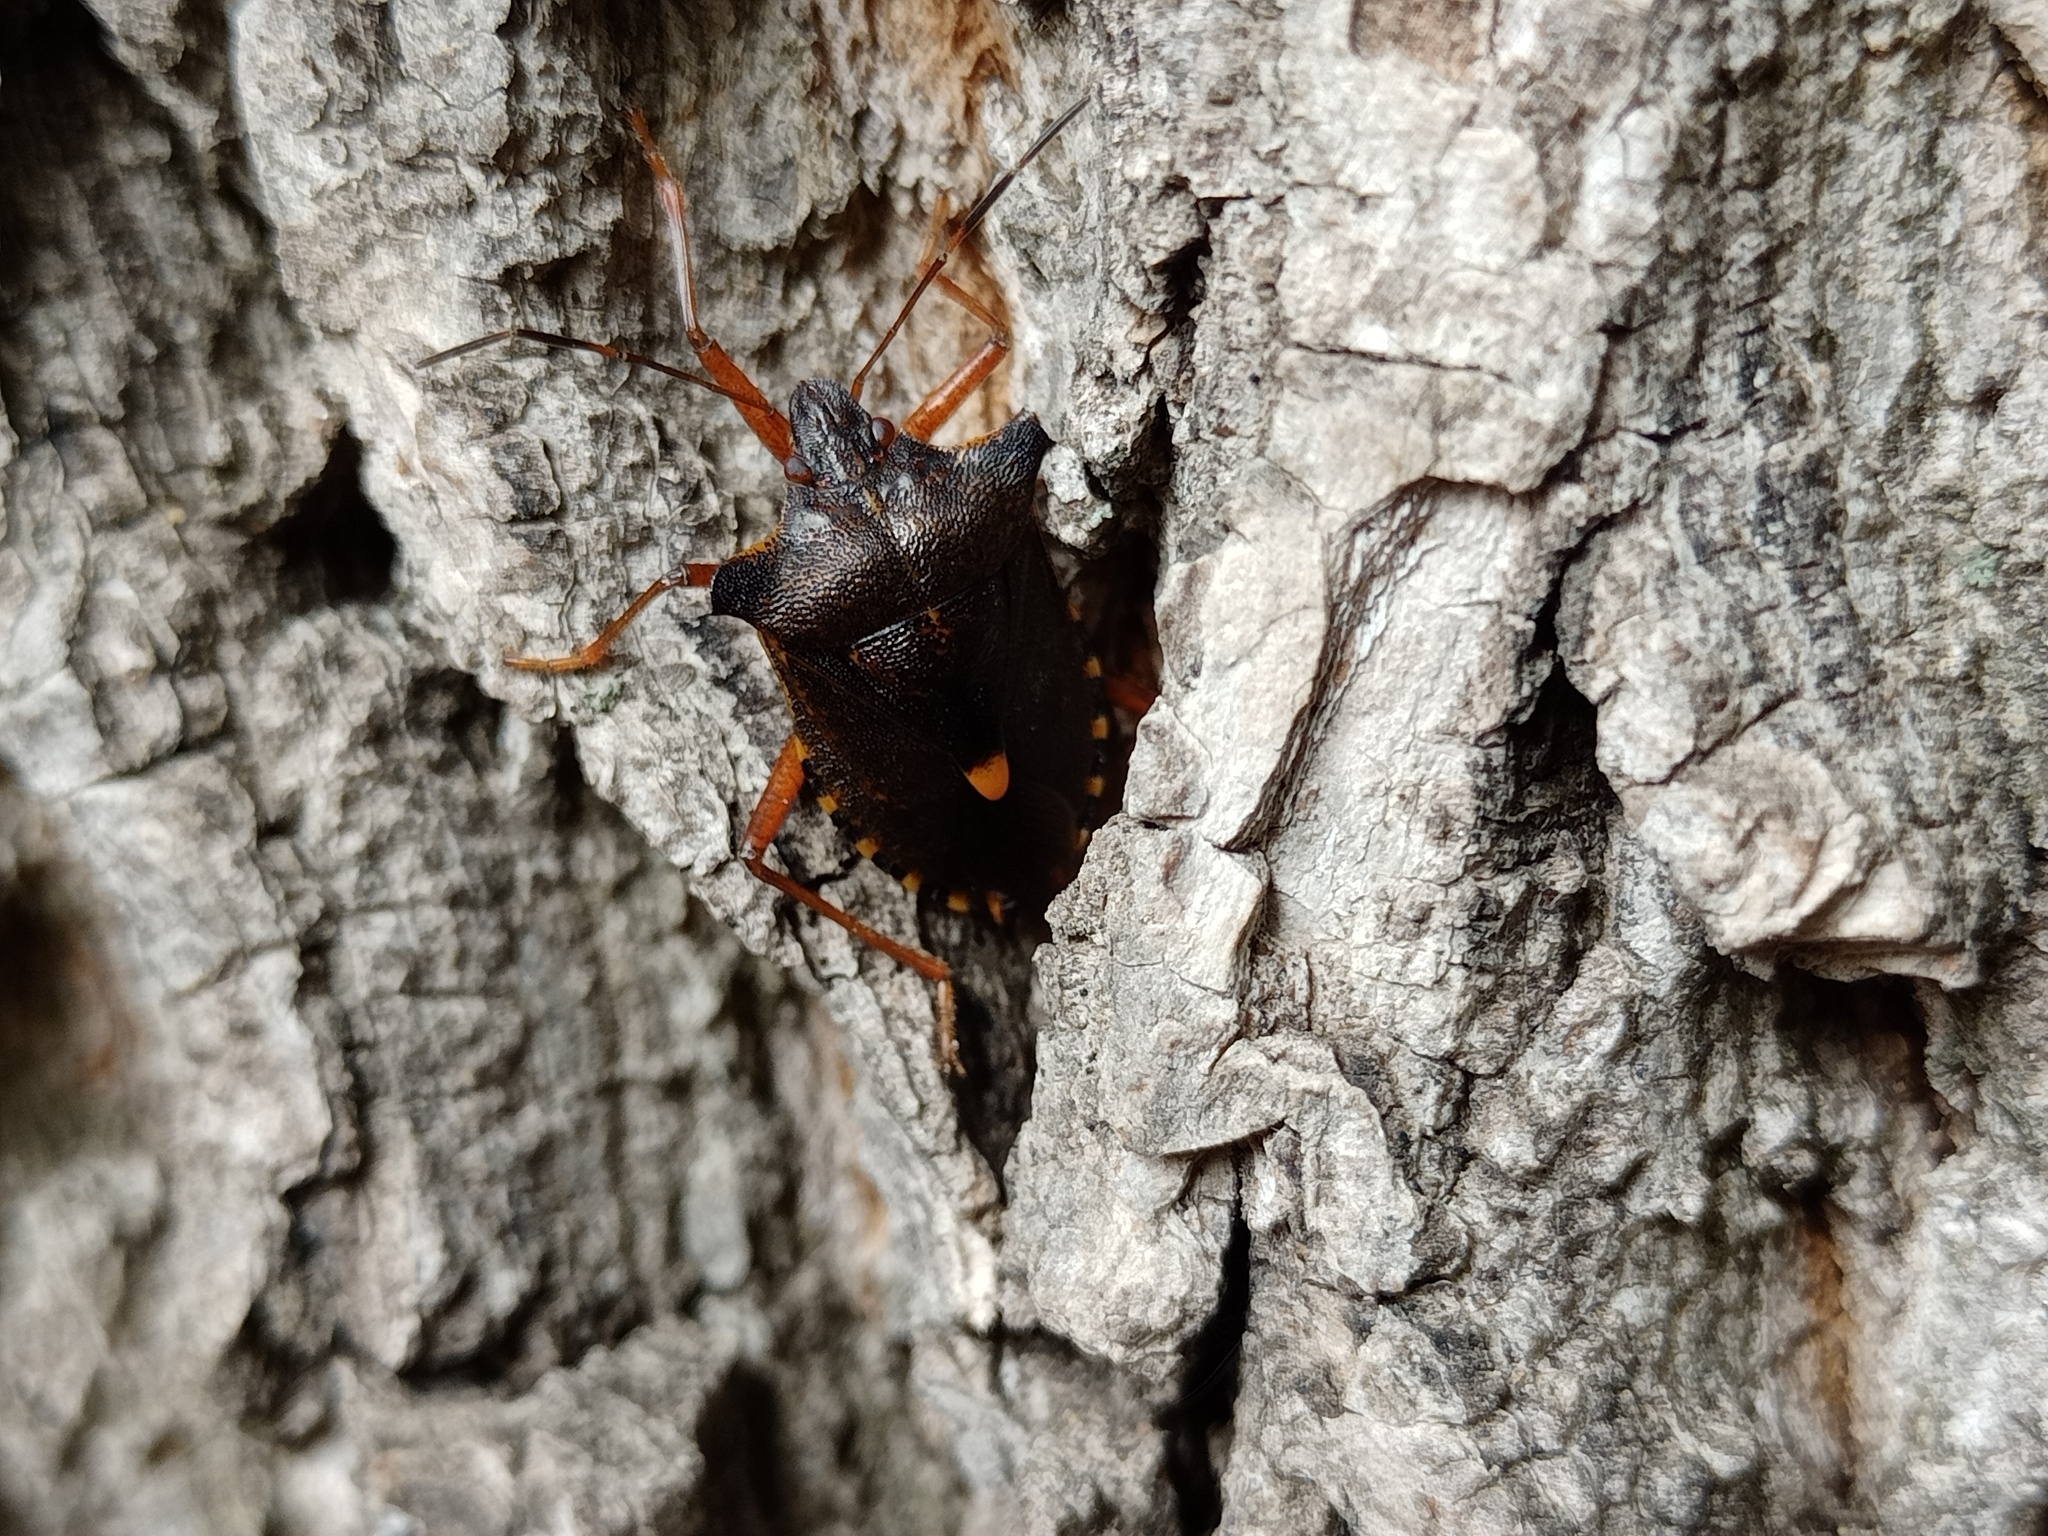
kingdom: Animalia
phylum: Arthropoda
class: Insecta
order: Hemiptera
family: Pentatomidae
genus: Pentatoma
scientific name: Pentatoma rufipes
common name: Forest bug
